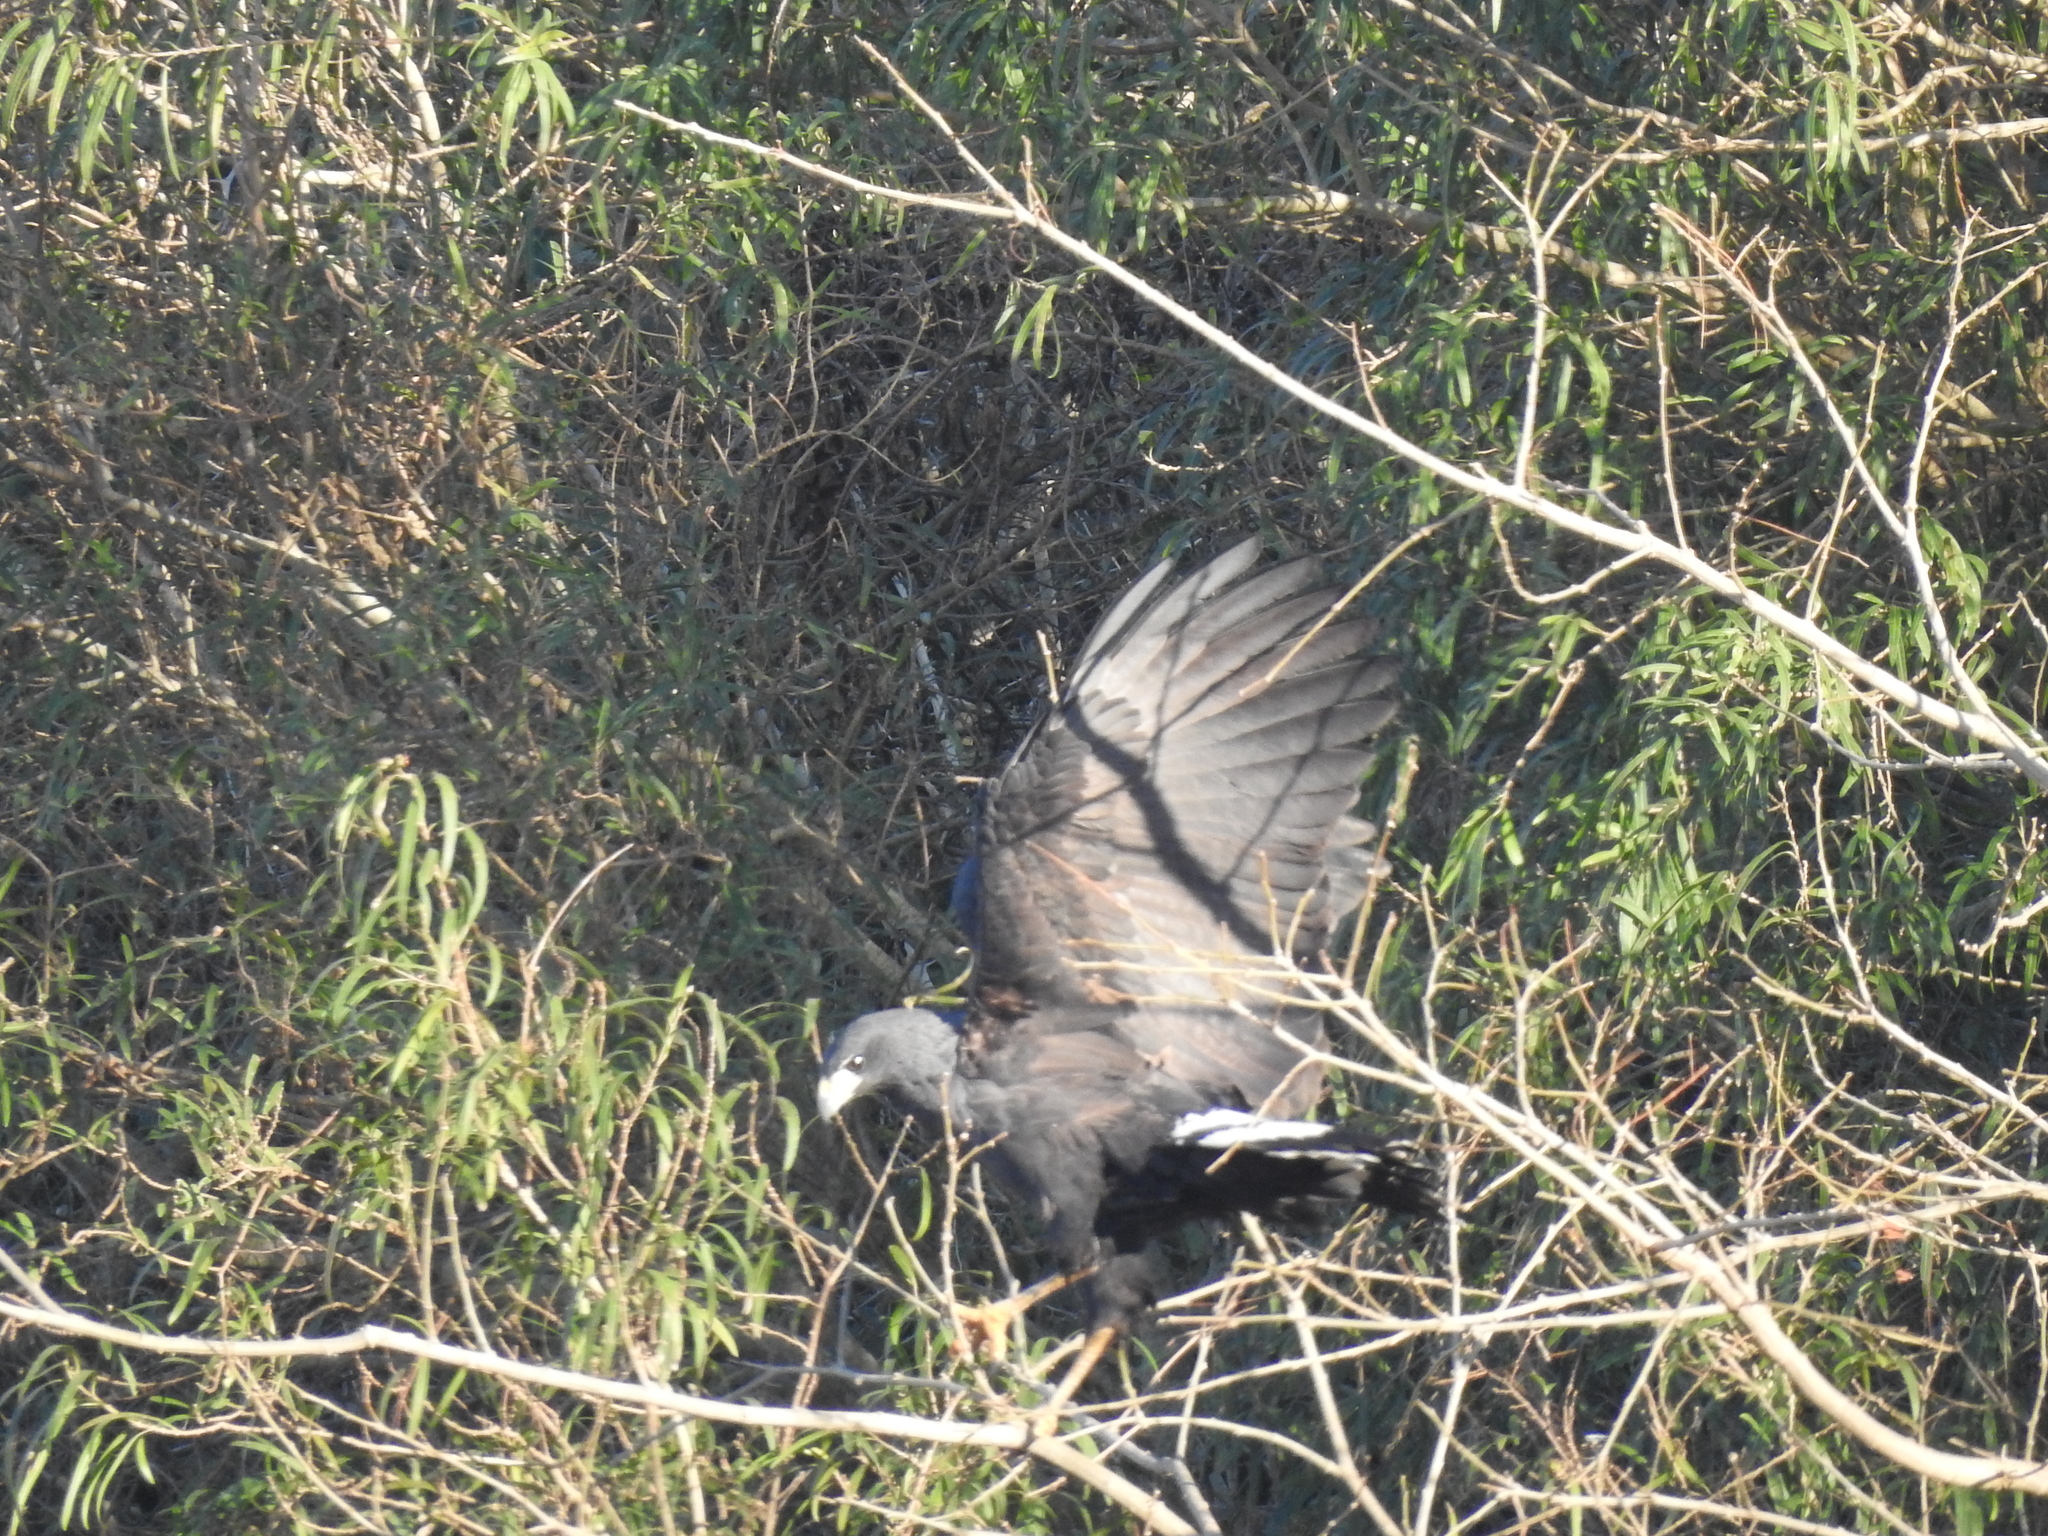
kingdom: Animalia
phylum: Chordata
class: Aves
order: Accipitriformes
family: Accipitridae
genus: Buteogallus
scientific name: Buteogallus urubitinga
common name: Great black hawk
